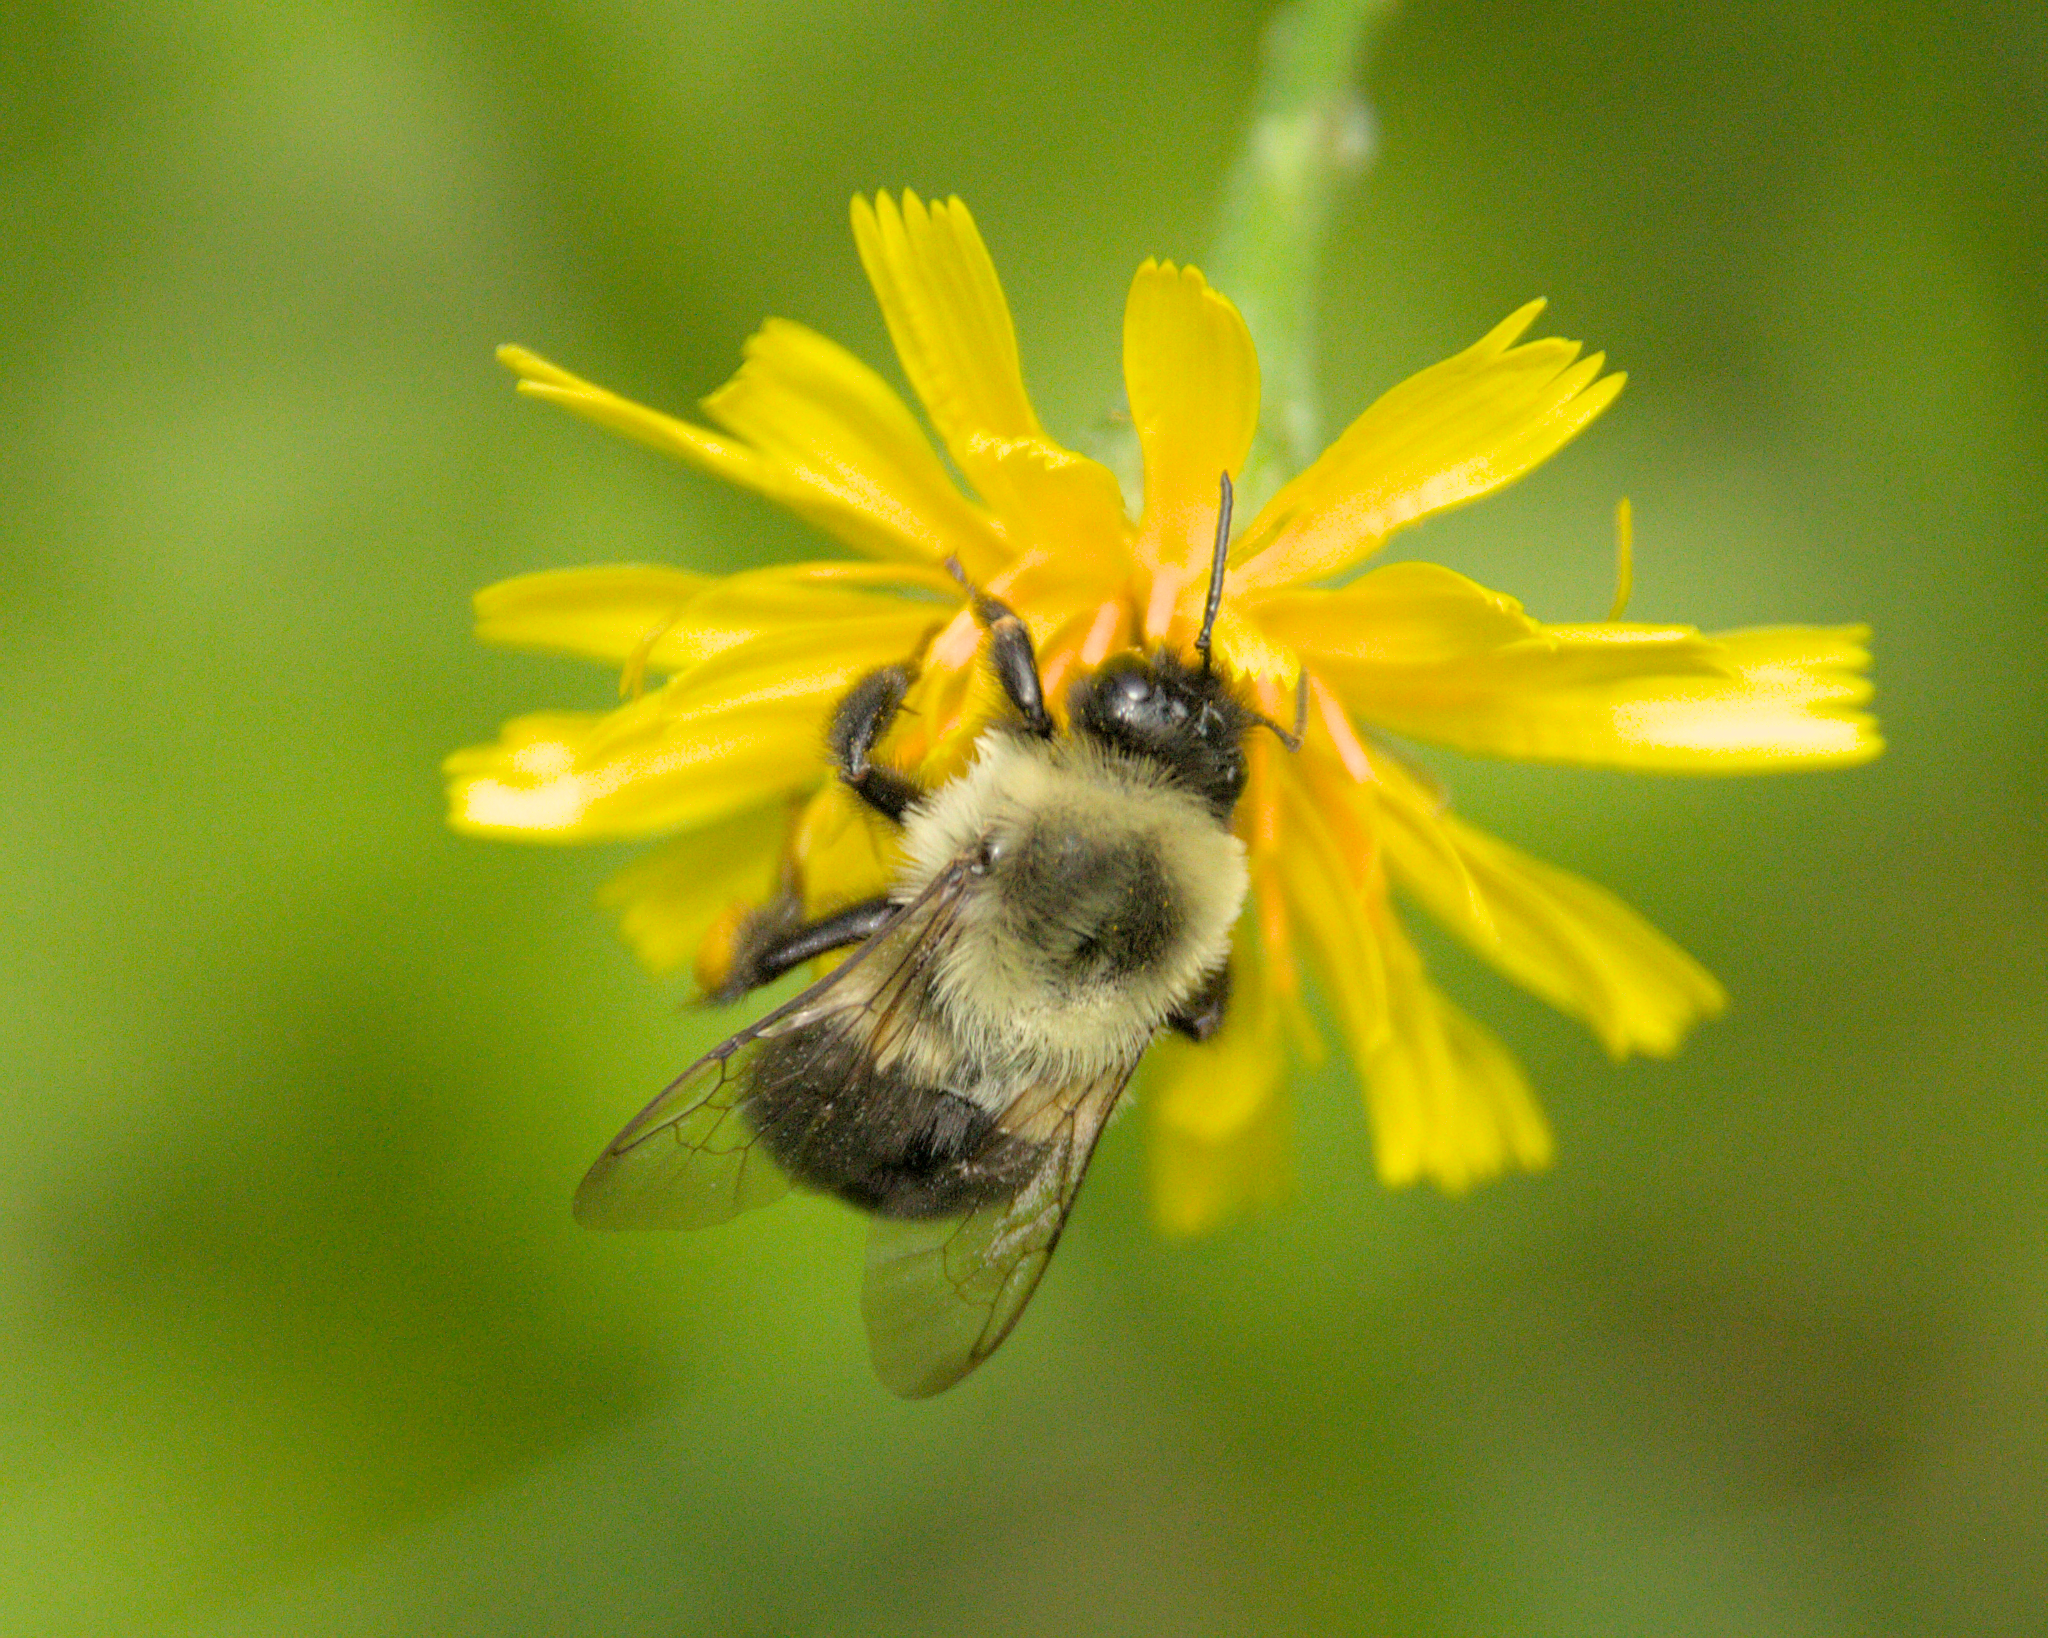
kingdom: Animalia
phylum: Arthropoda
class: Insecta
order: Hymenoptera
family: Apidae
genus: Bombus
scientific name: Bombus impatiens
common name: Common eastern bumble bee
